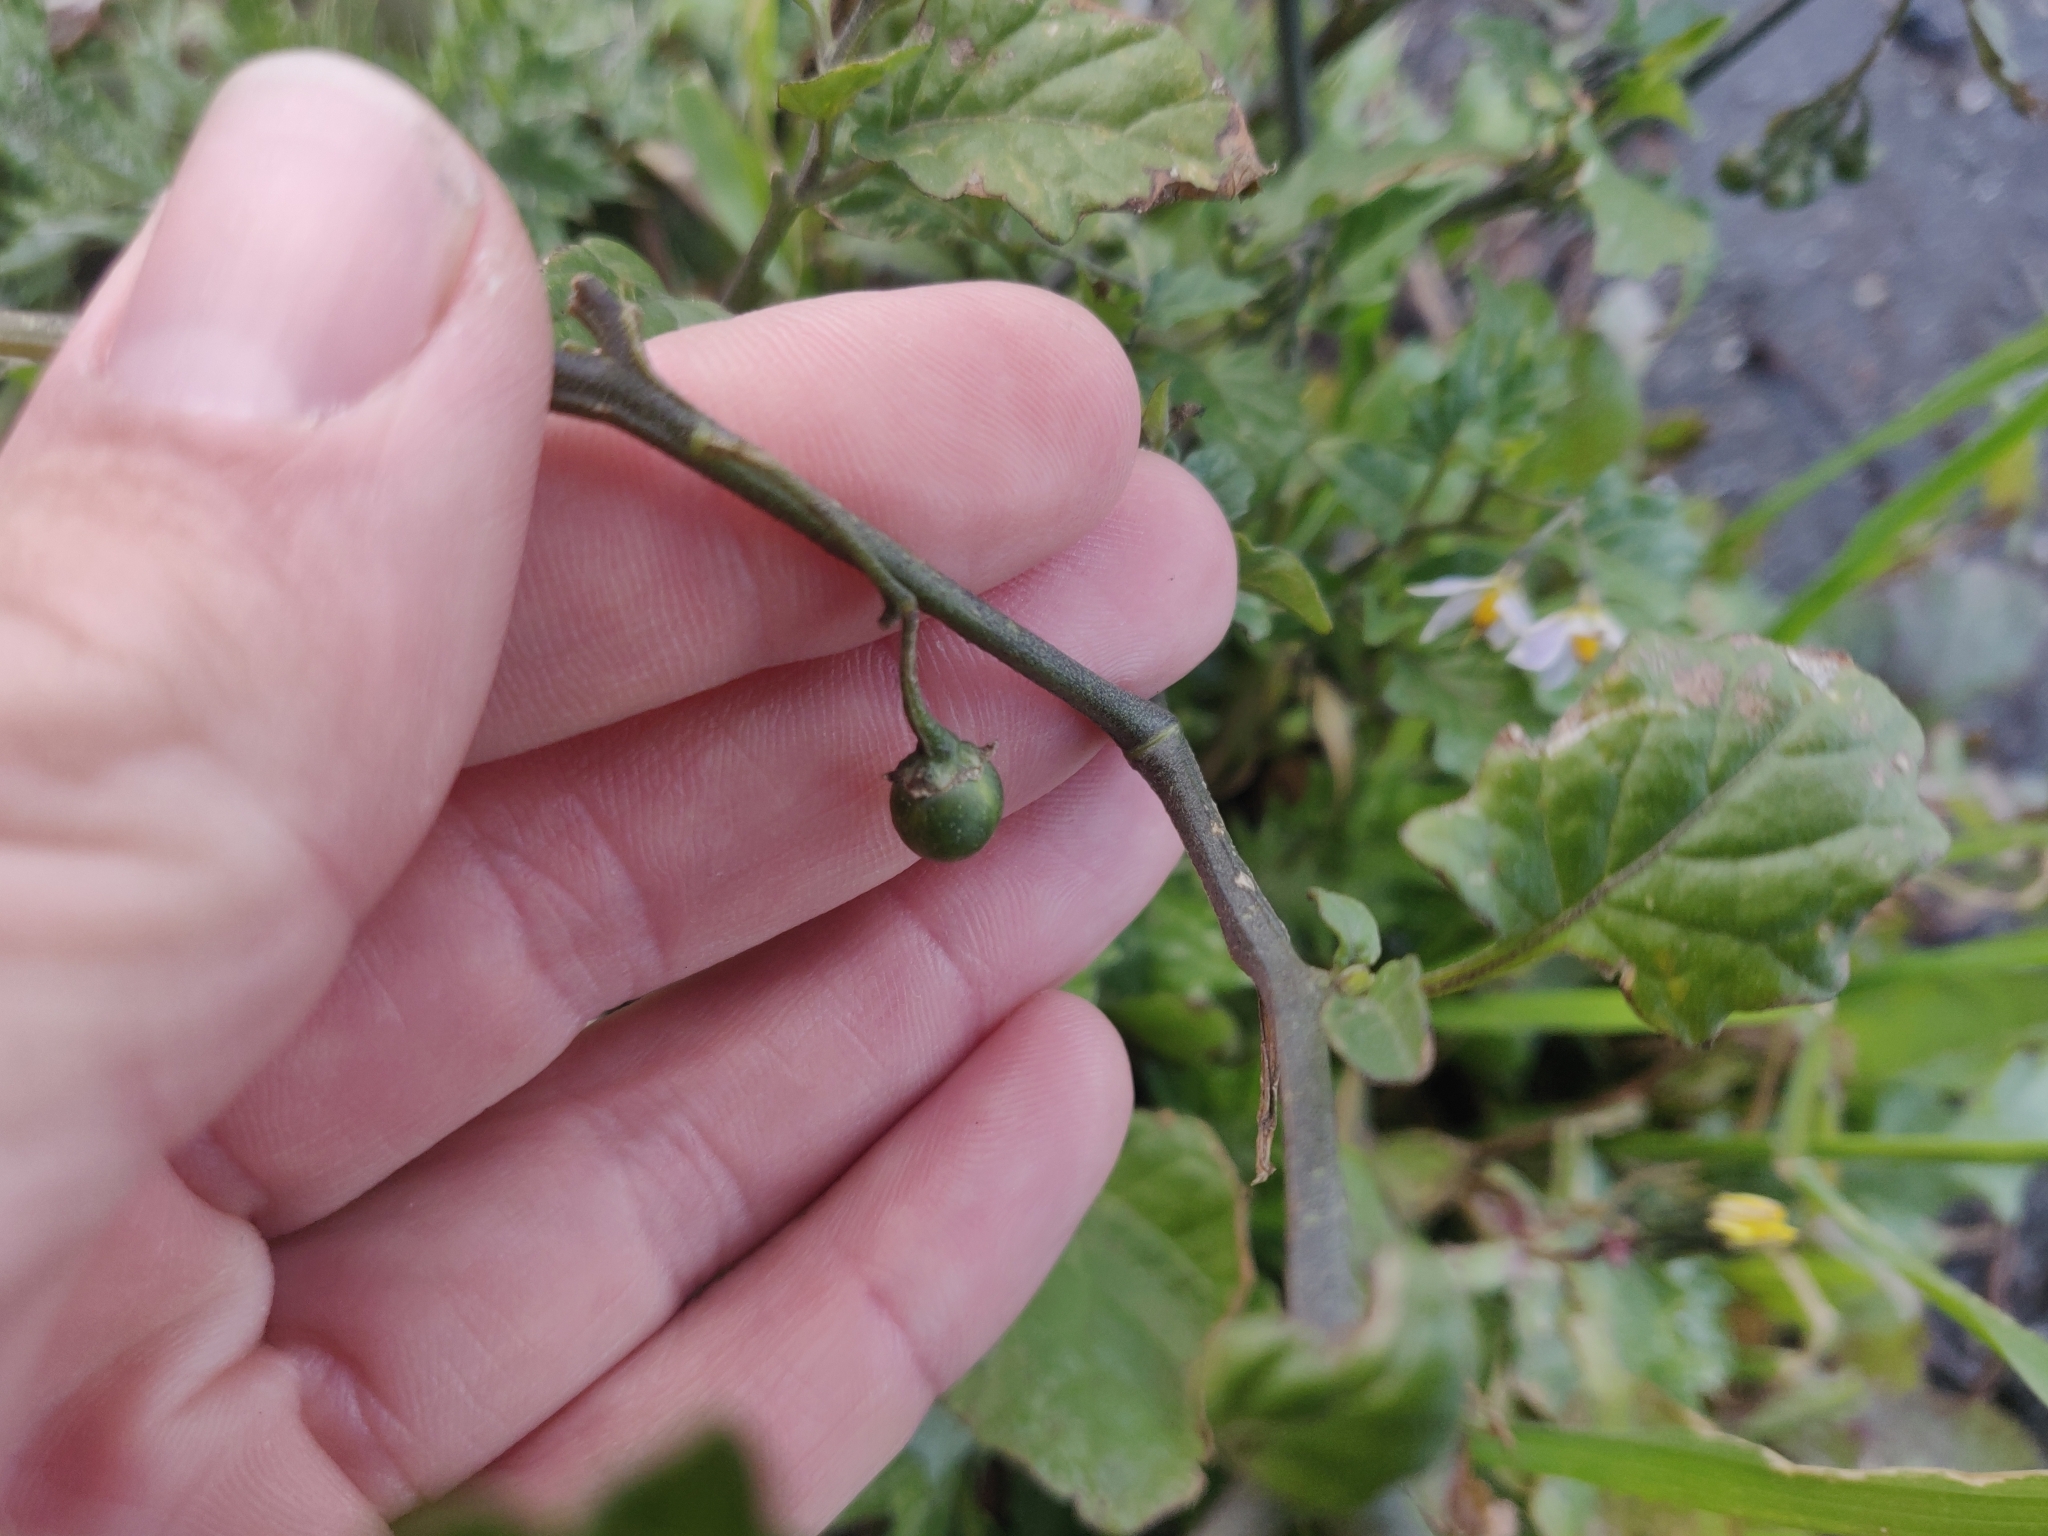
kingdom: Plantae
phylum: Tracheophyta
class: Magnoliopsida
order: Solanales
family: Solanaceae
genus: Solanum
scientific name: Solanum furcatum
